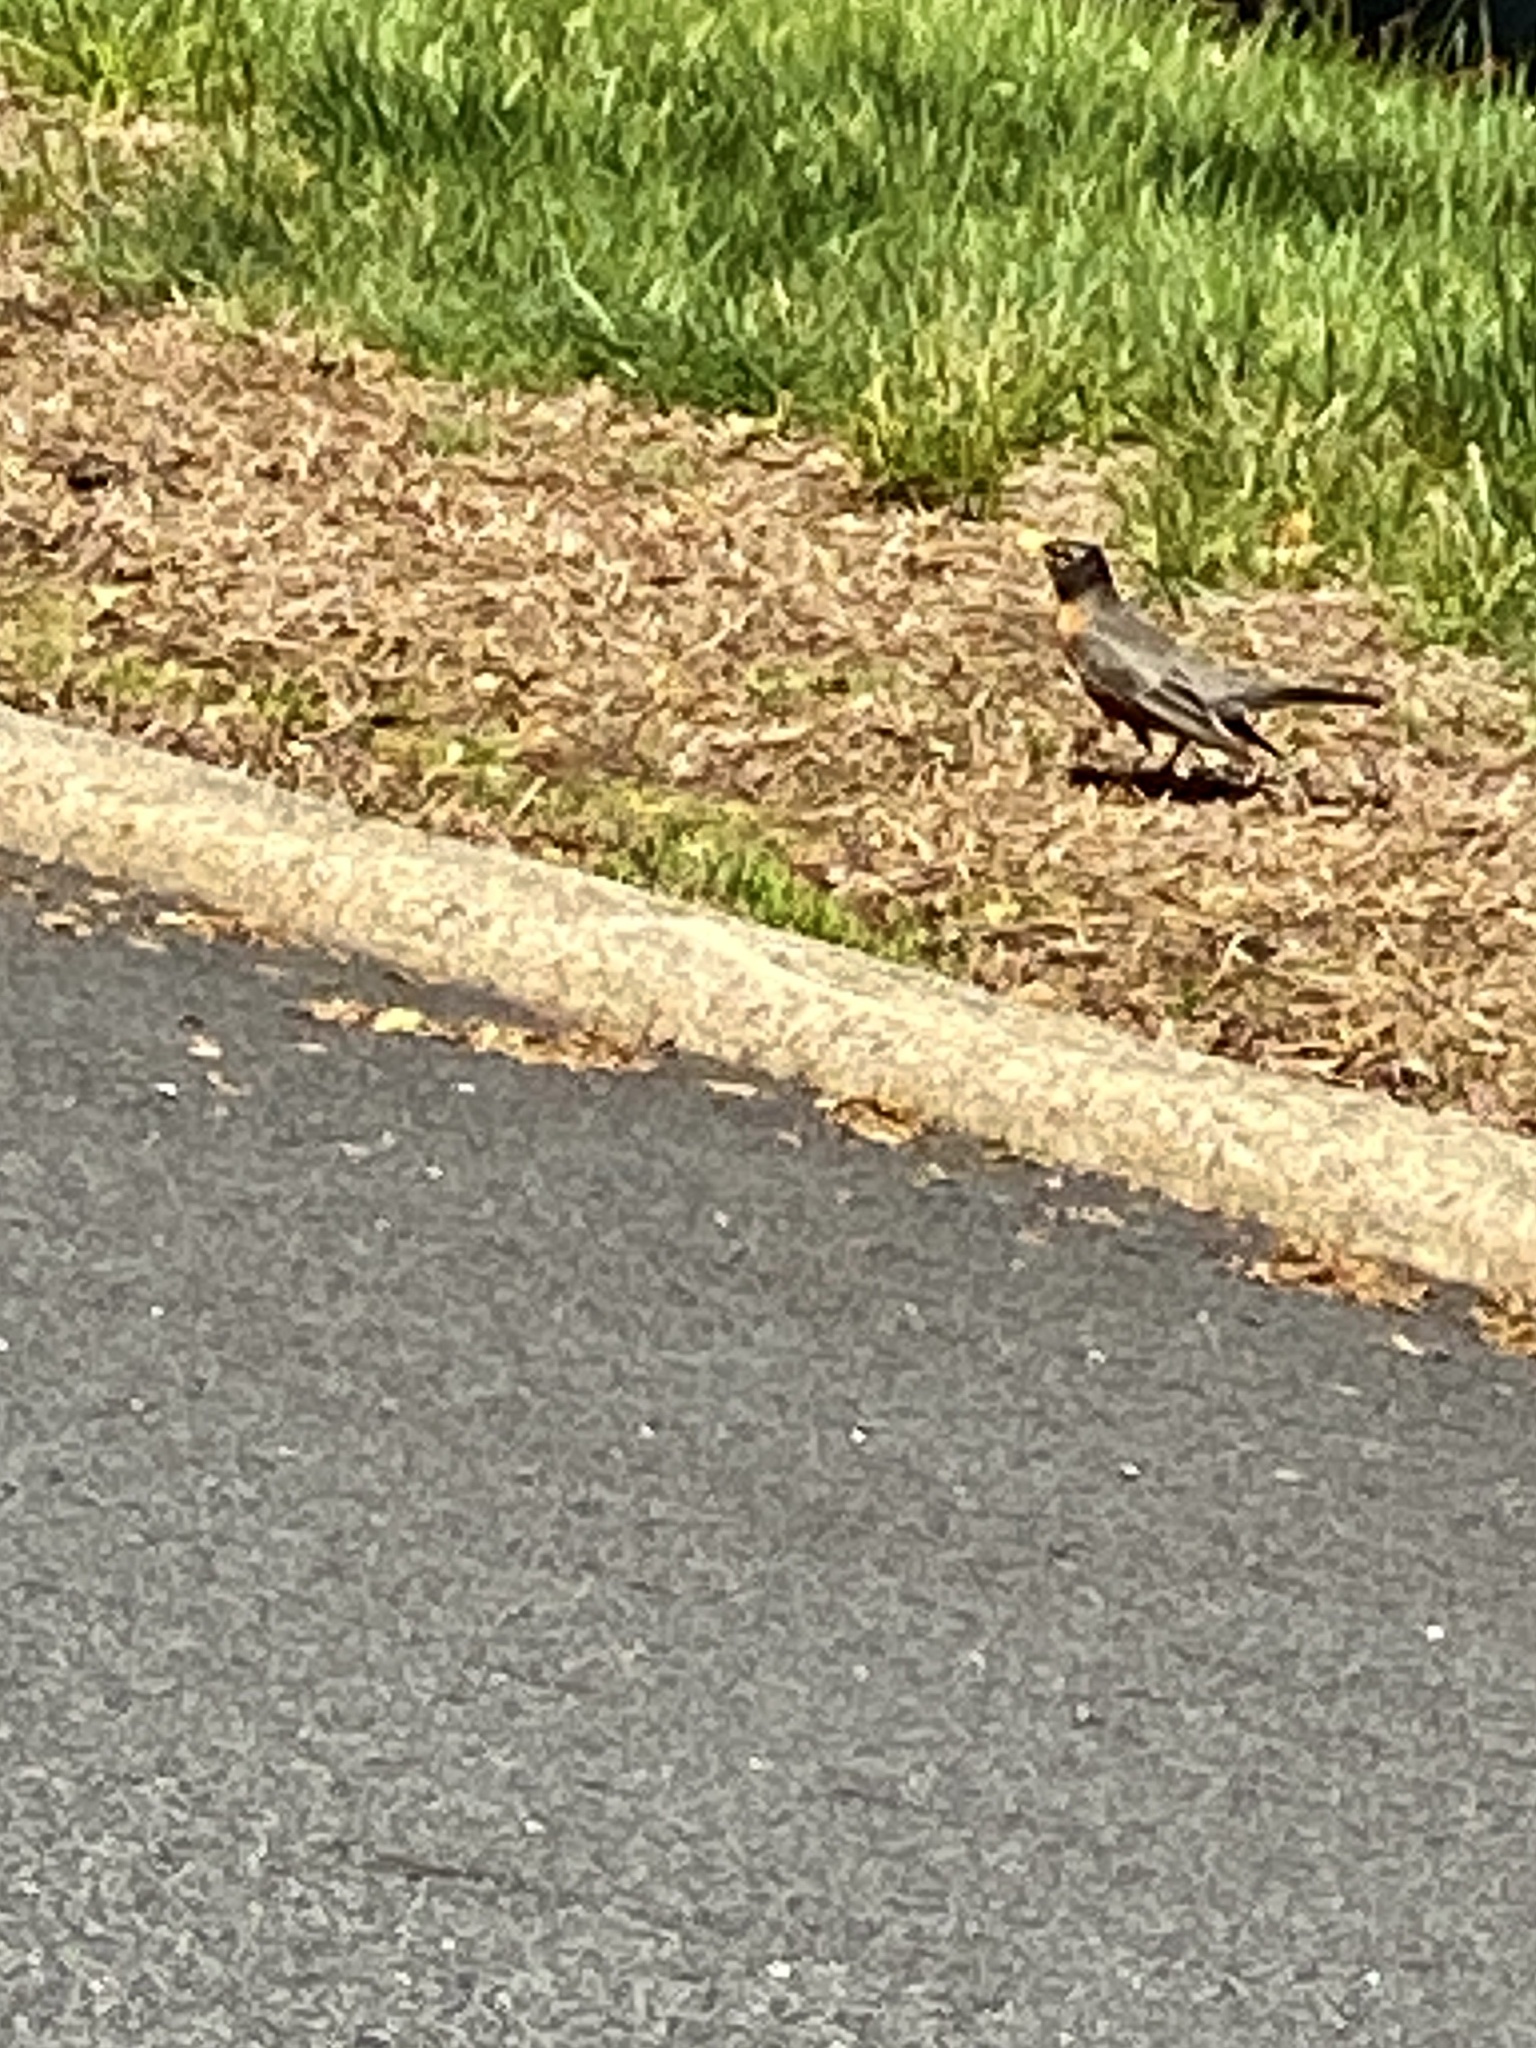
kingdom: Animalia
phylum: Chordata
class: Aves
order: Passeriformes
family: Turdidae
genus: Turdus
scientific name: Turdus migratorius
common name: American robin
